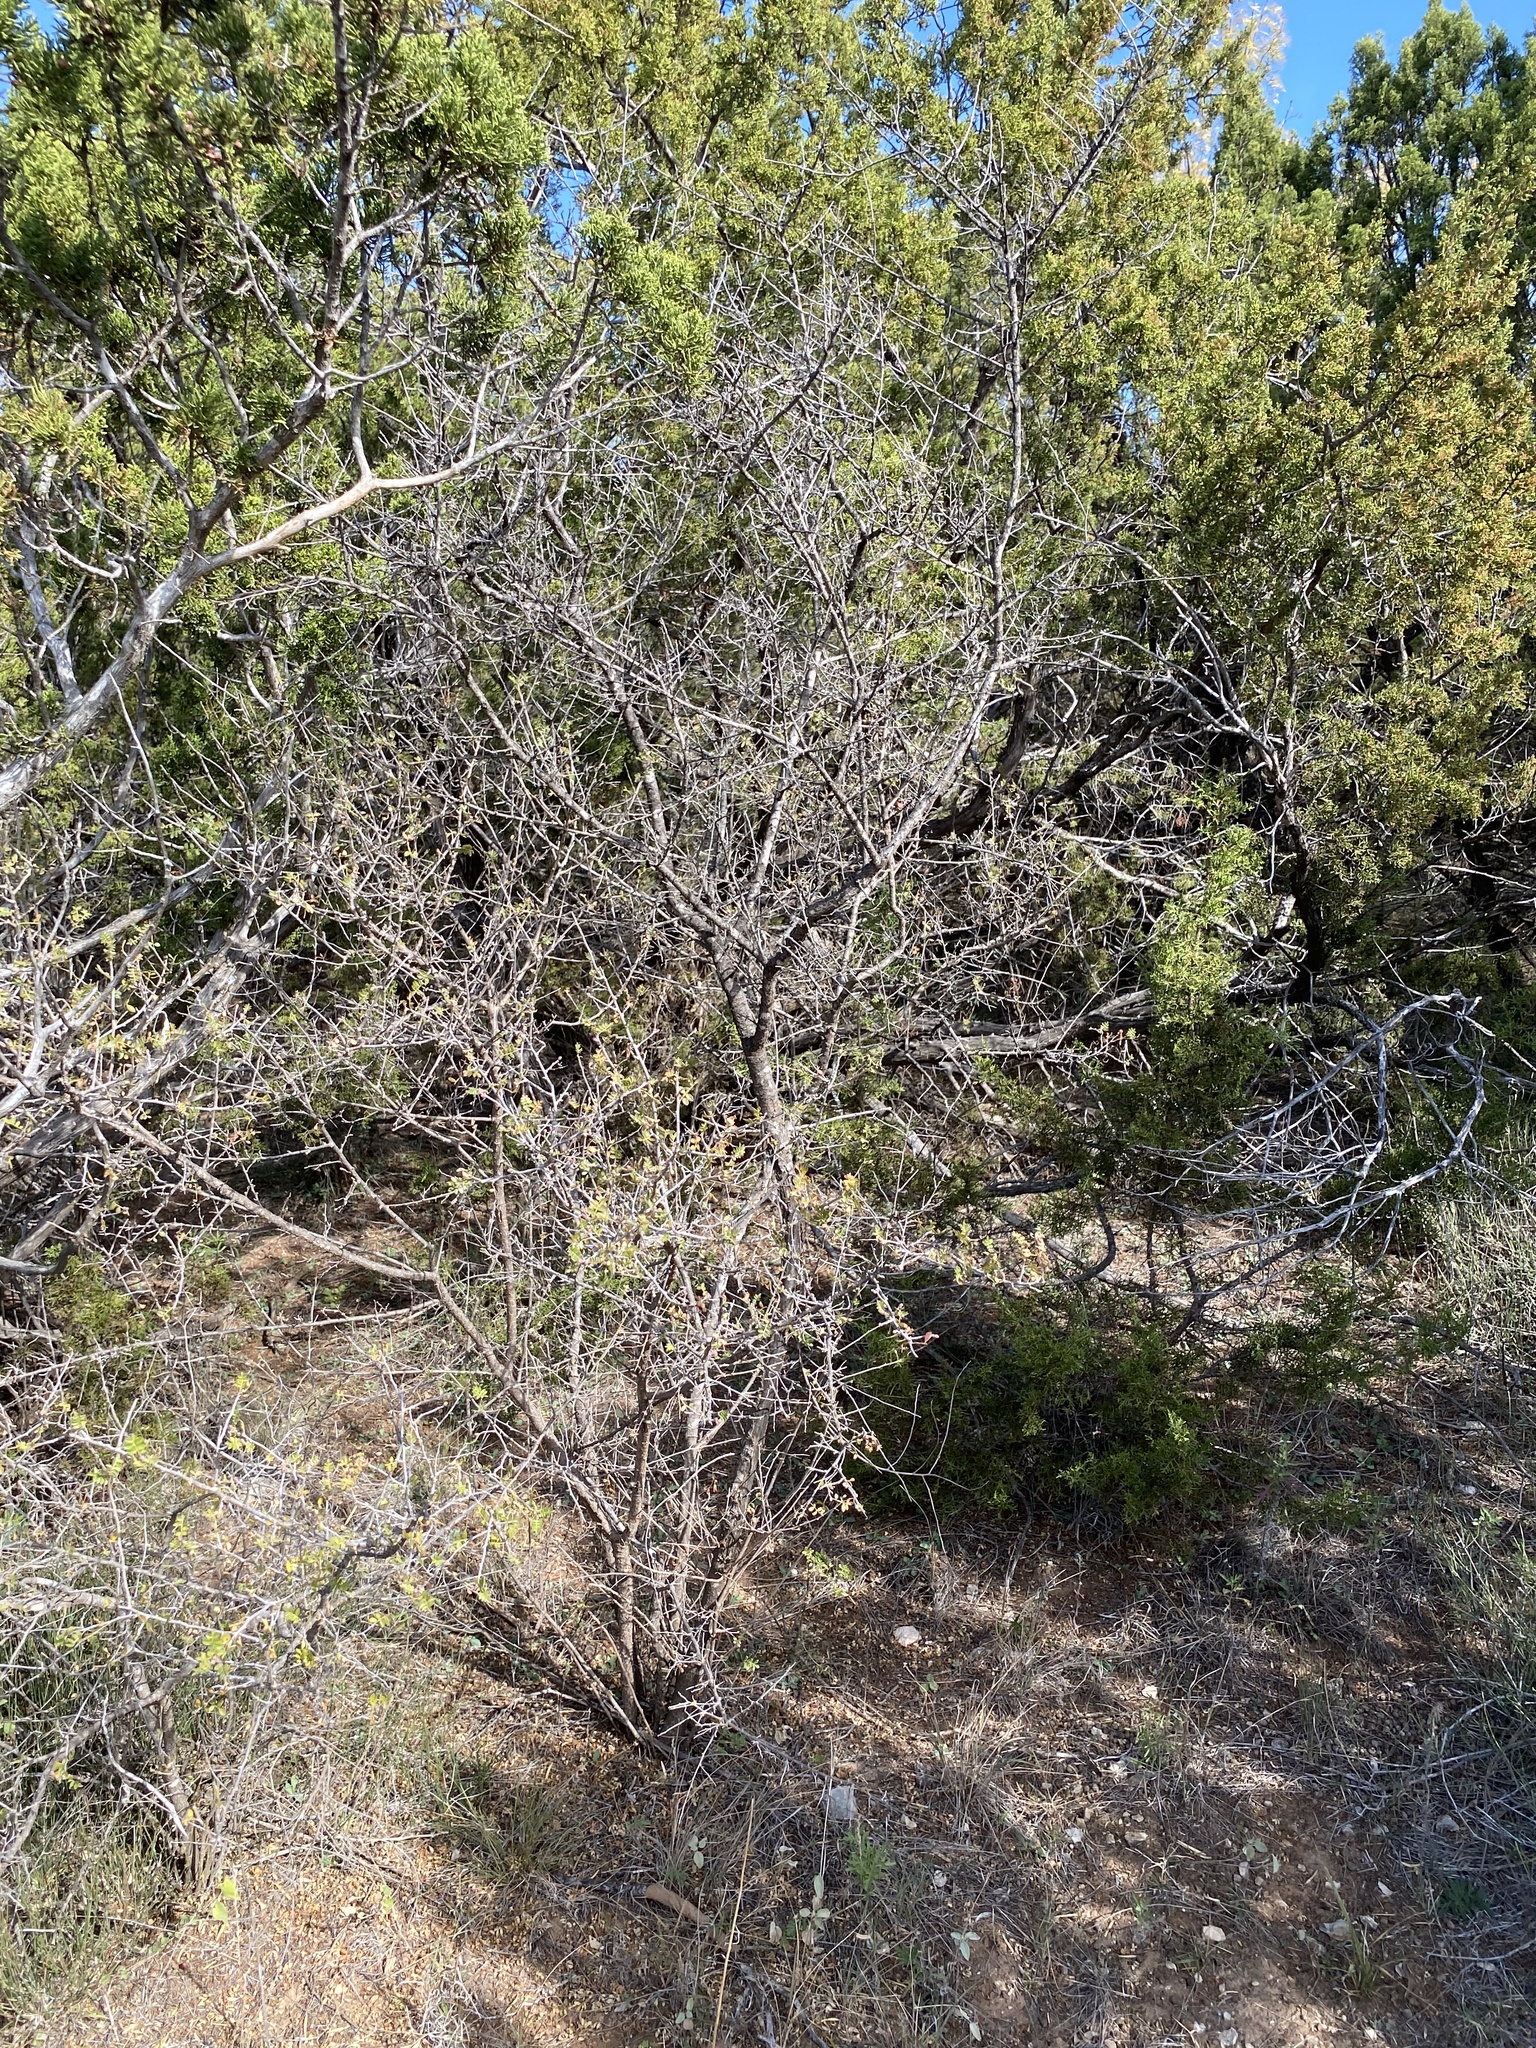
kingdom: Plantae
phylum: Tracheophyta
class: Magnoliopsida
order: Sapindales
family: Anacardiaceae
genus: Rhus
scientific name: Rhus microphylla
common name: Desert sumac
